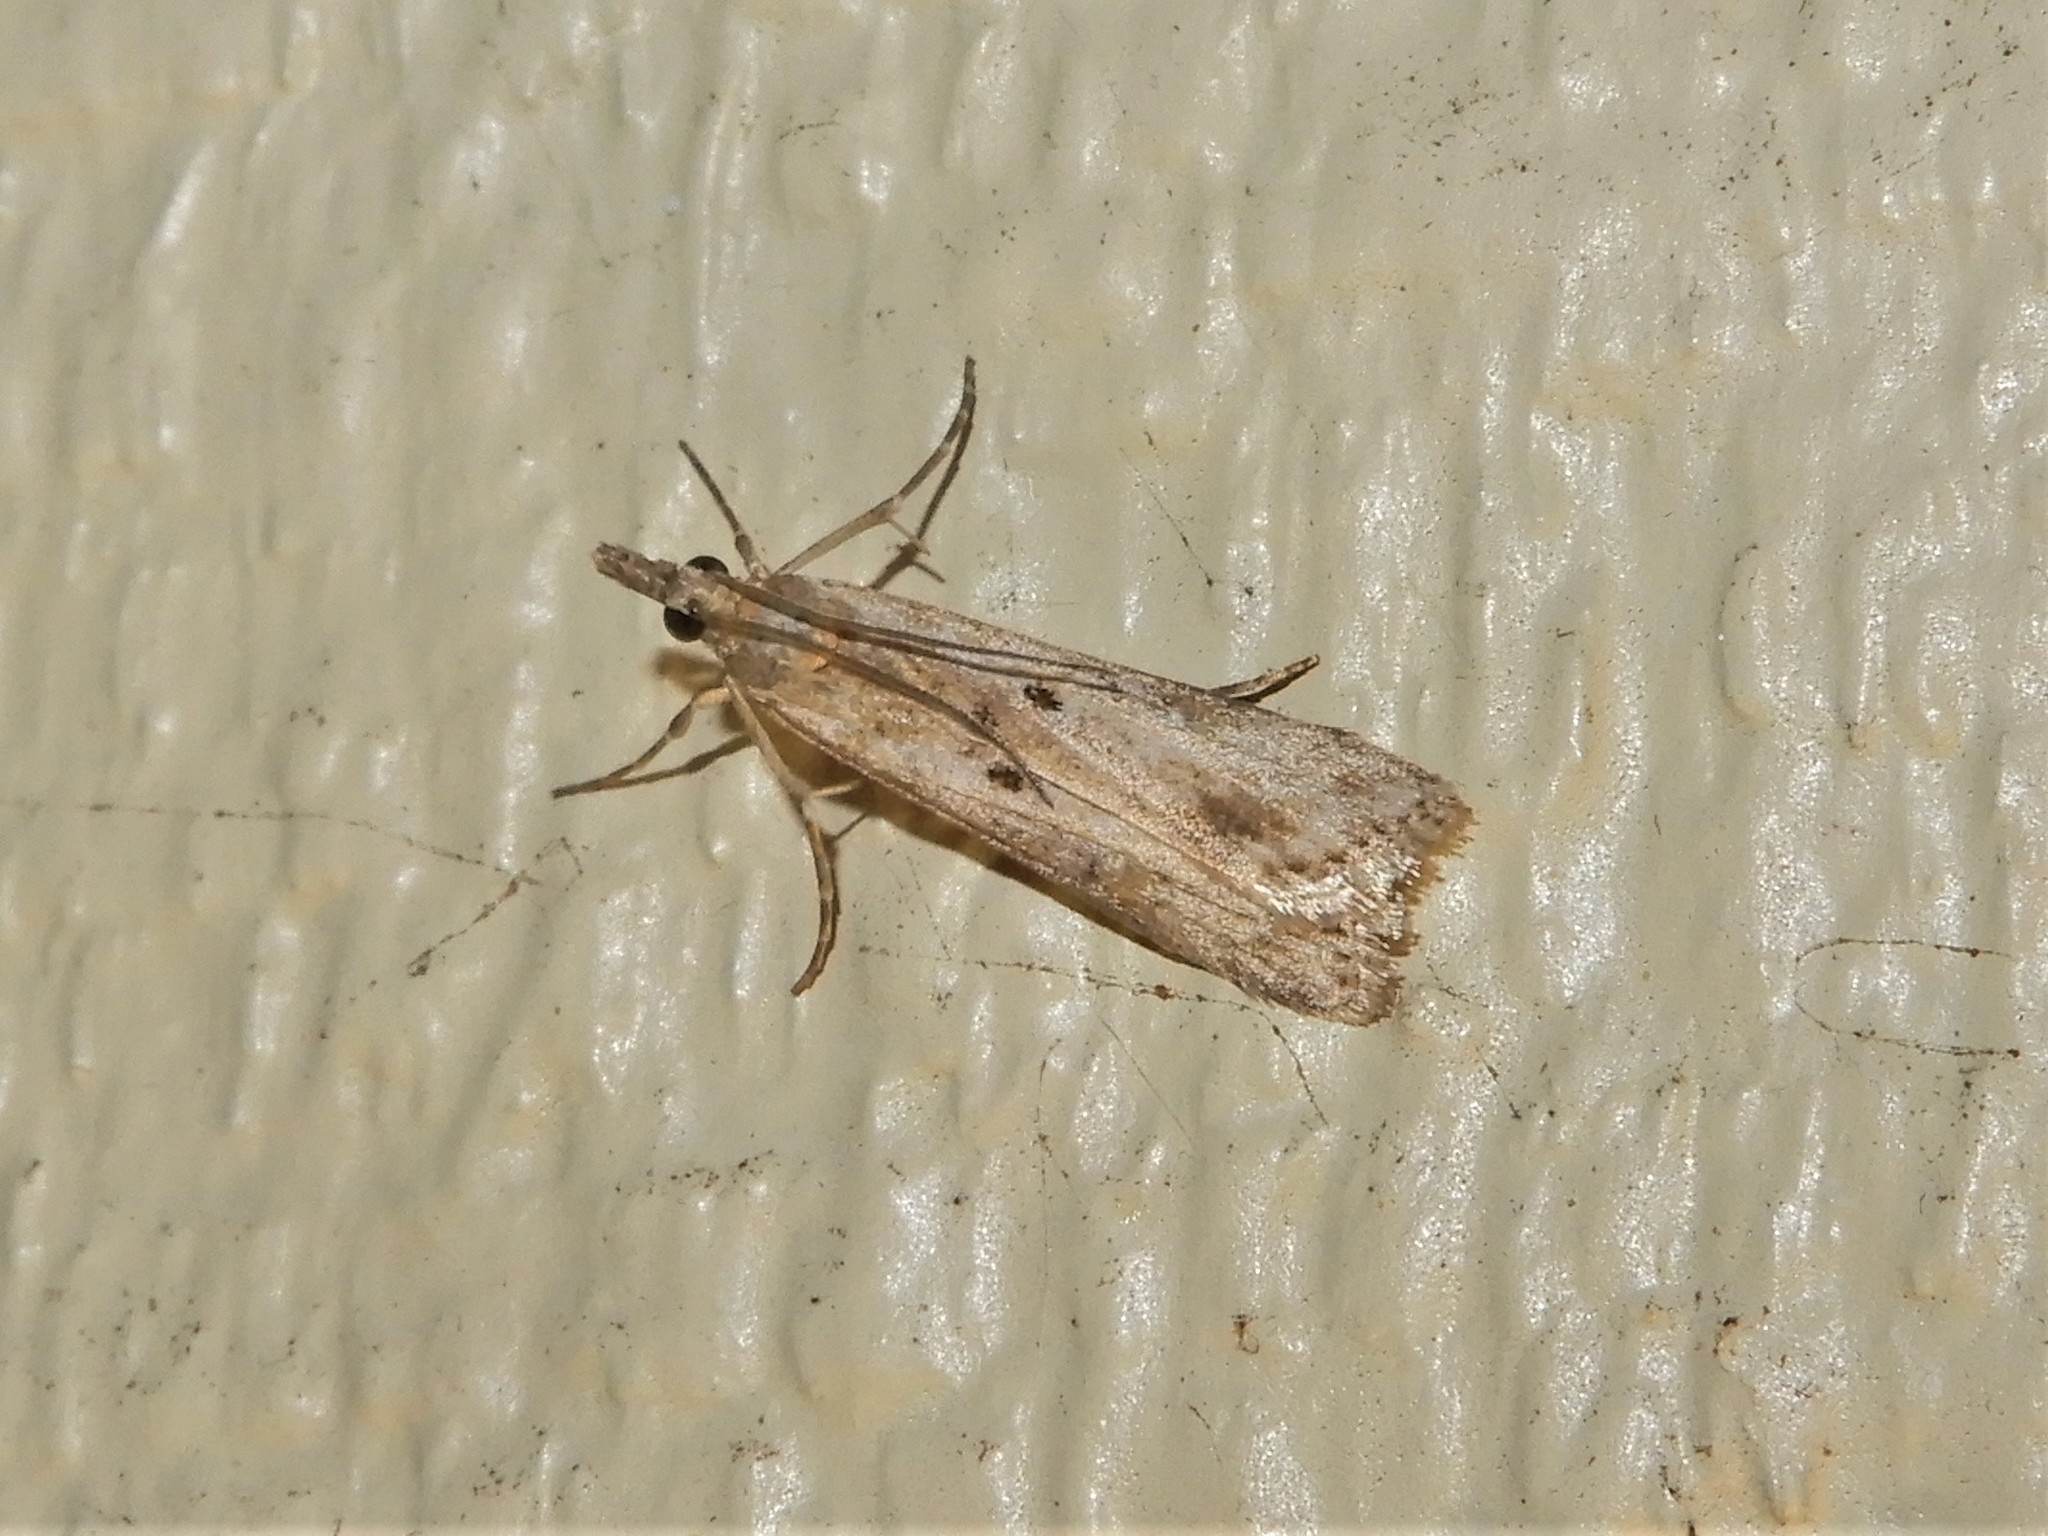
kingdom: Animalia
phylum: Arthropoda
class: Insecta
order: Lepidoptera
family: Crambidae
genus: Eudonia
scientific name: Eudonia leptalea
